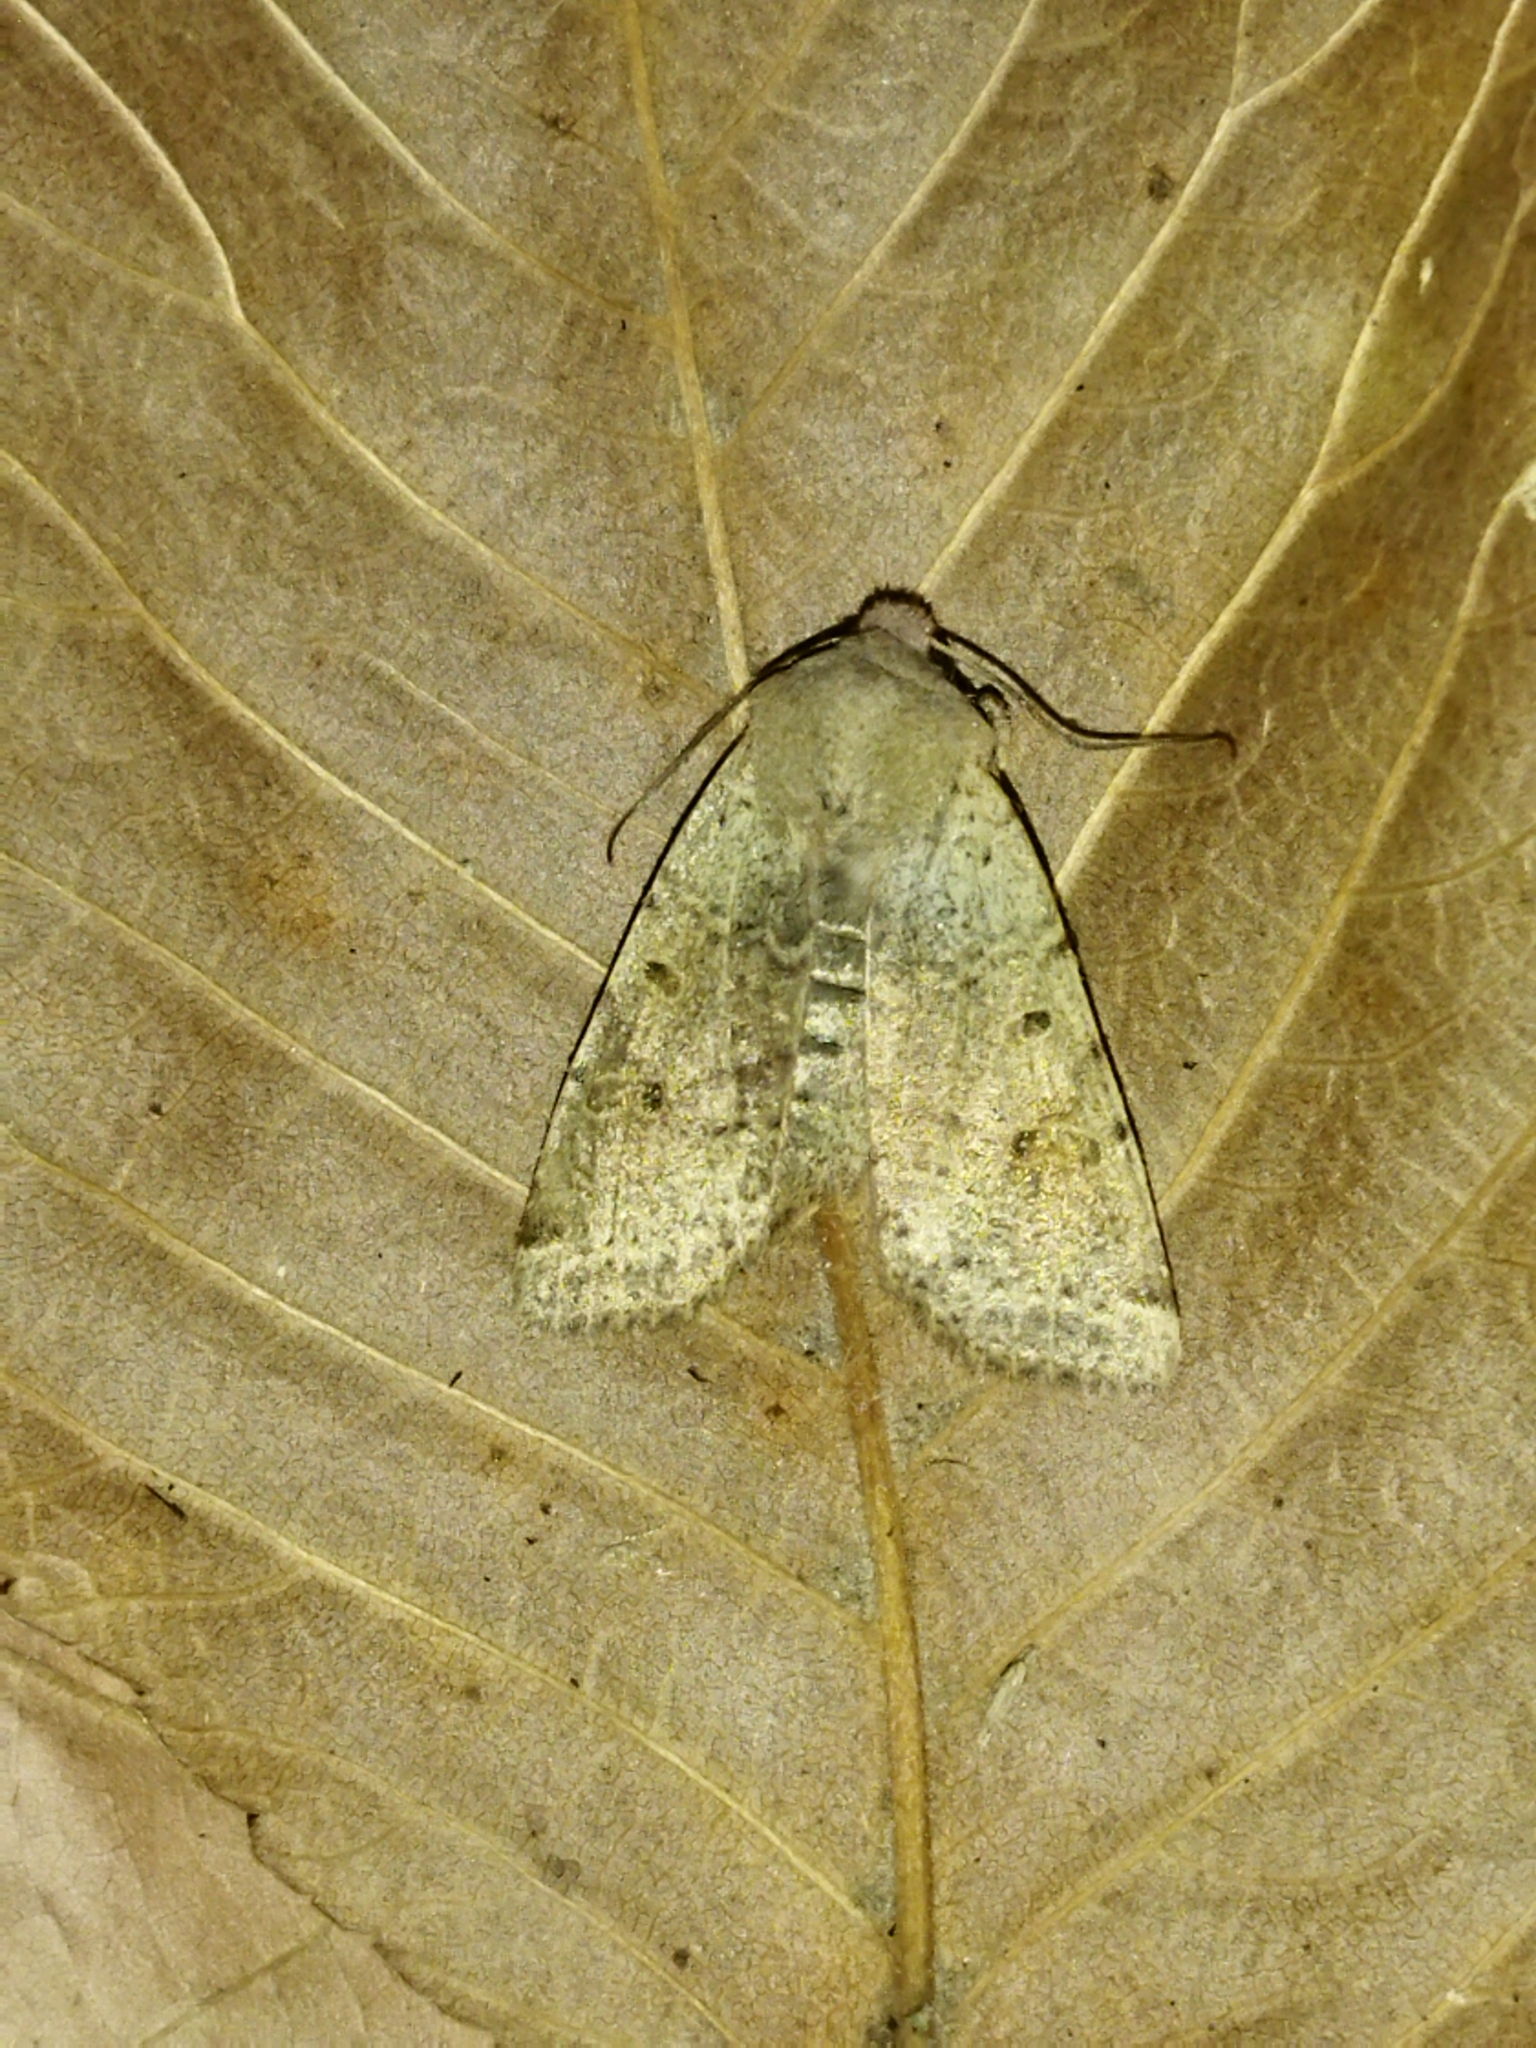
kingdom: Animalia
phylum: Arthropoda
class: Insecta
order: Lepidoptera
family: Noctuidae
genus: Agrochola
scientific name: Agrochola lychnidis
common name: Beaded chestnut
